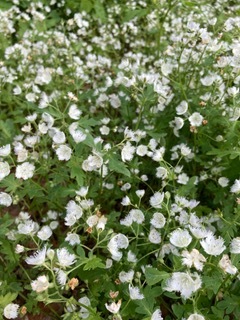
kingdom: Plantae
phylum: Tracheophyta
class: Magnoliopsida
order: Boraginales
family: Hydrophyllaceae
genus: Phacelia
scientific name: Phacelia fimbriata
